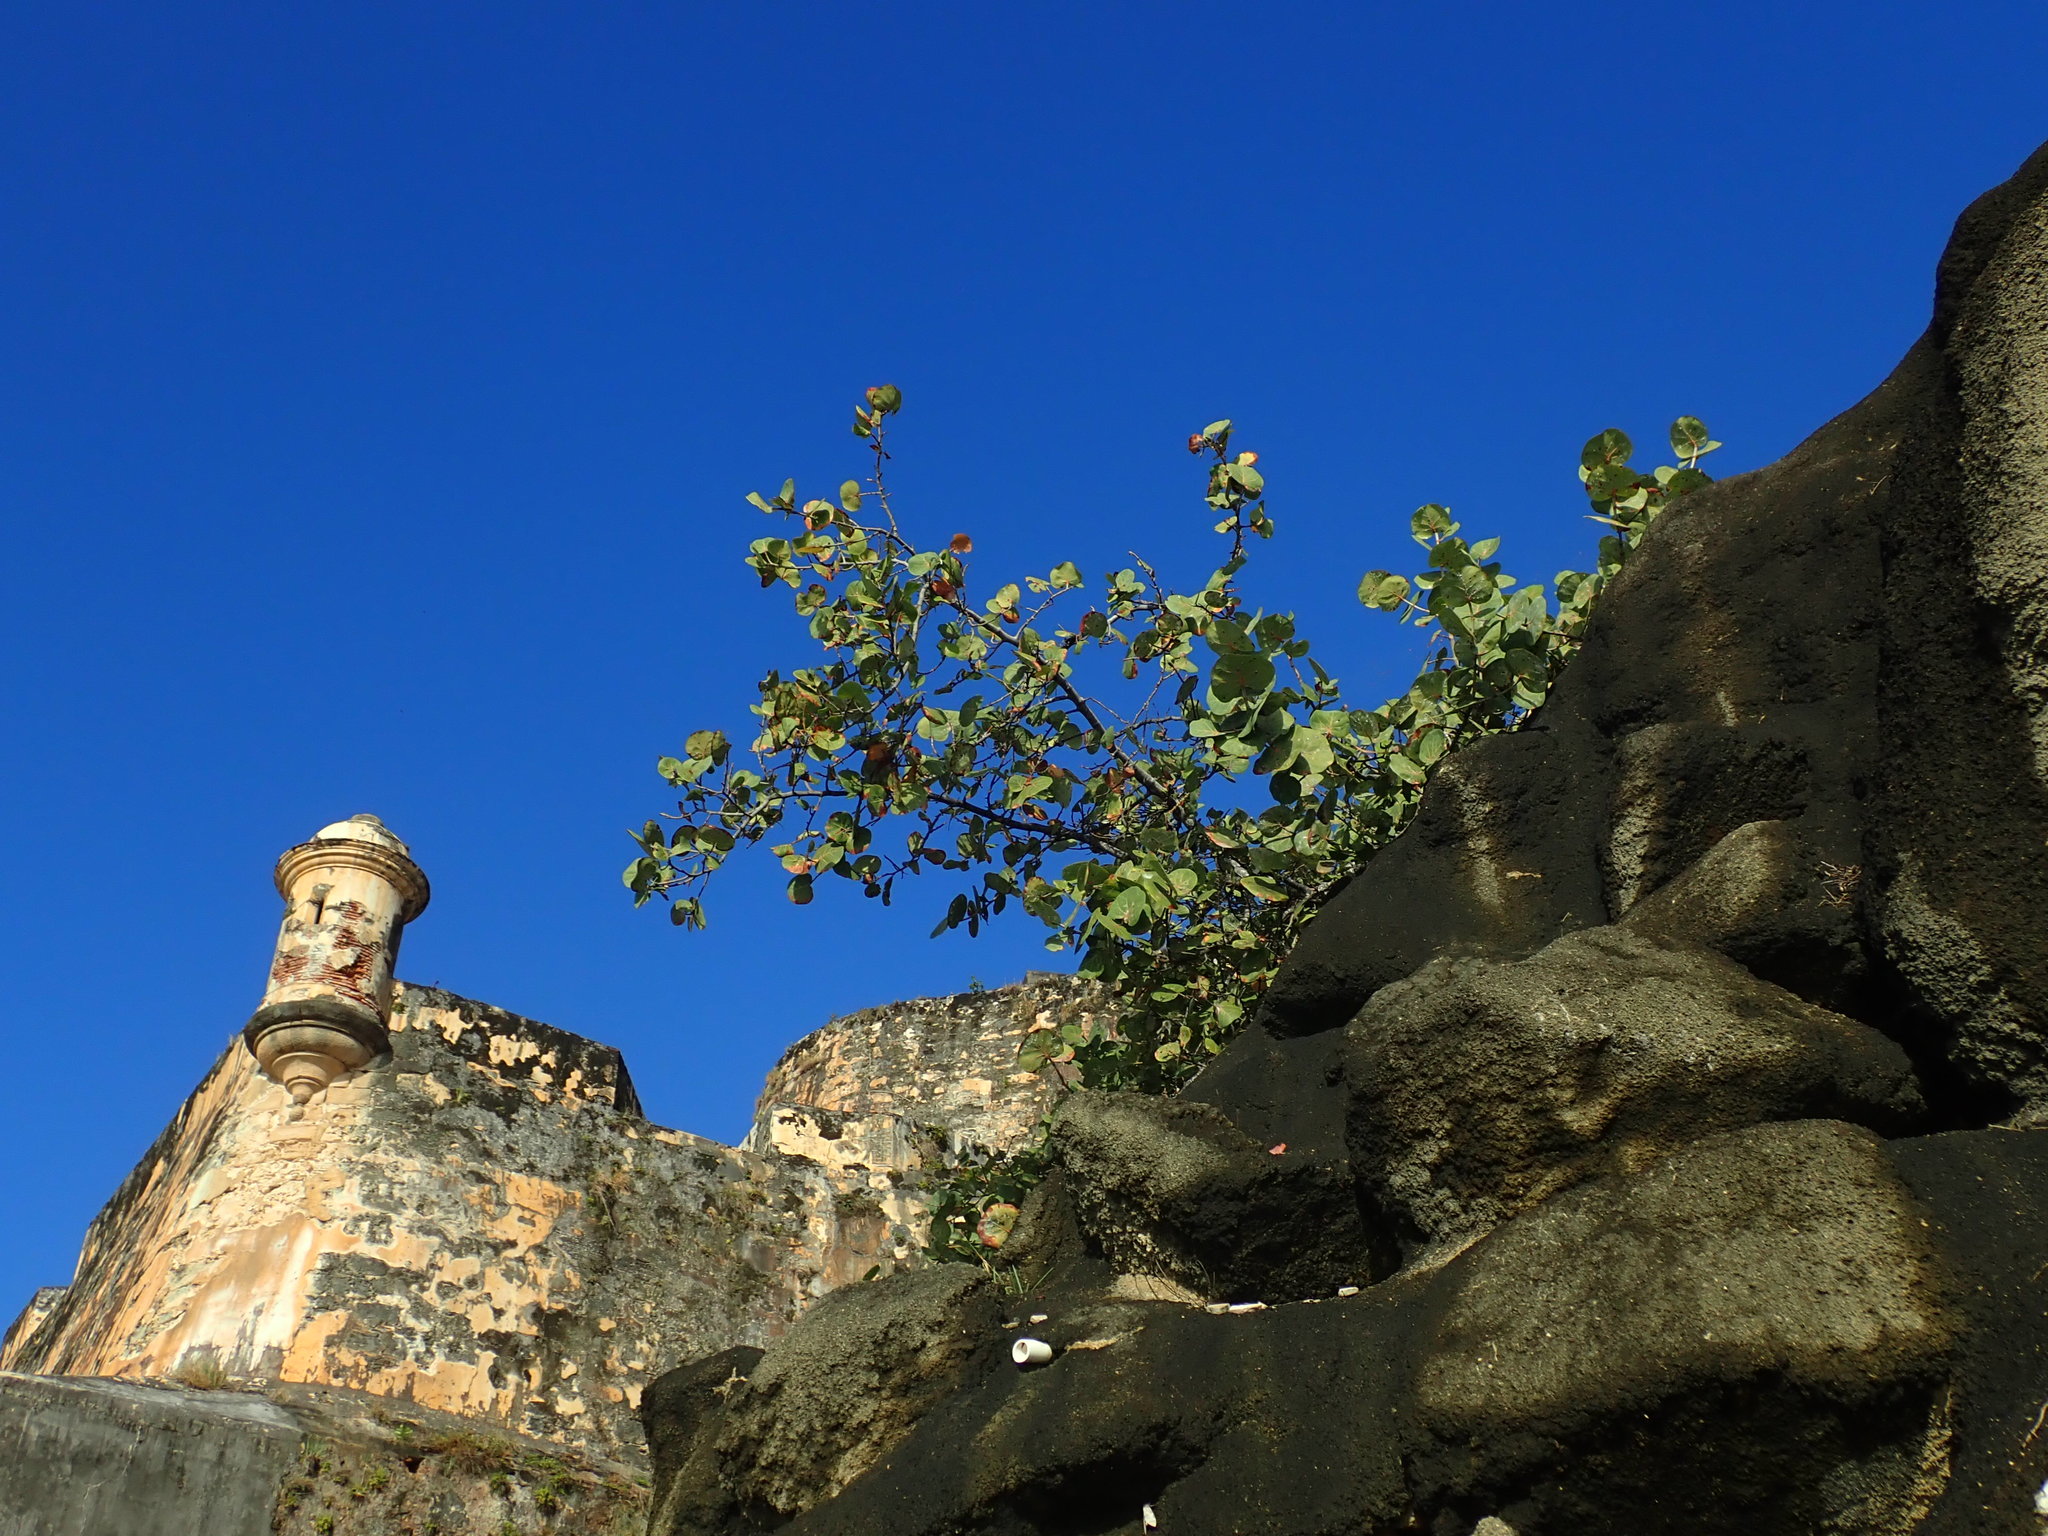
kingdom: Plantae
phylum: Tracheophyta
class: Magnoliopsida
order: Caryophyllales
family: Polygonaceae
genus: Coccoloba
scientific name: Coccoloba uvifera
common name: Seagrape
